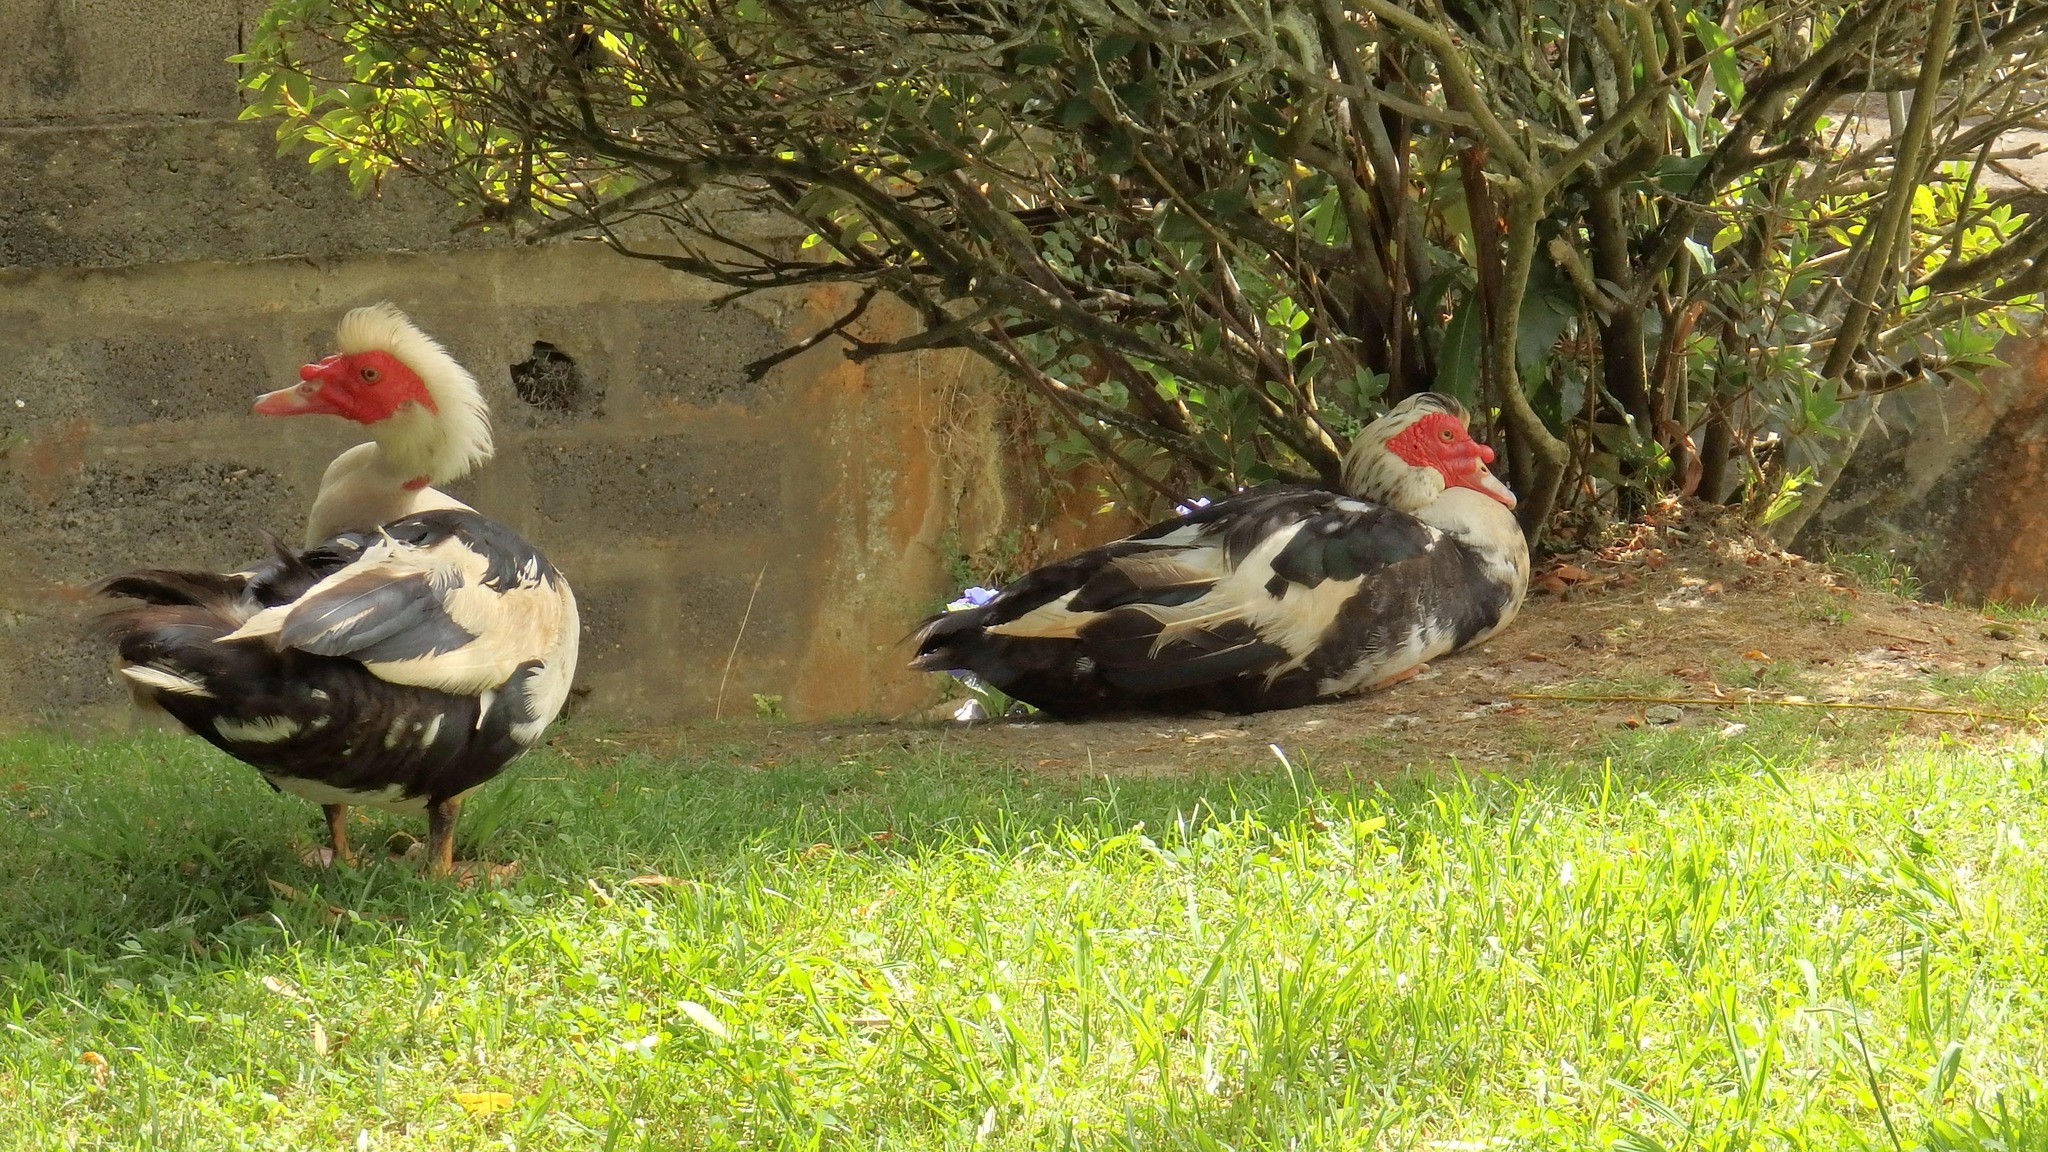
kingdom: Animalia
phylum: Chordata
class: Aves
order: Anseriformes
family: Anatidae
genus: Cairina
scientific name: Cairina moschata
